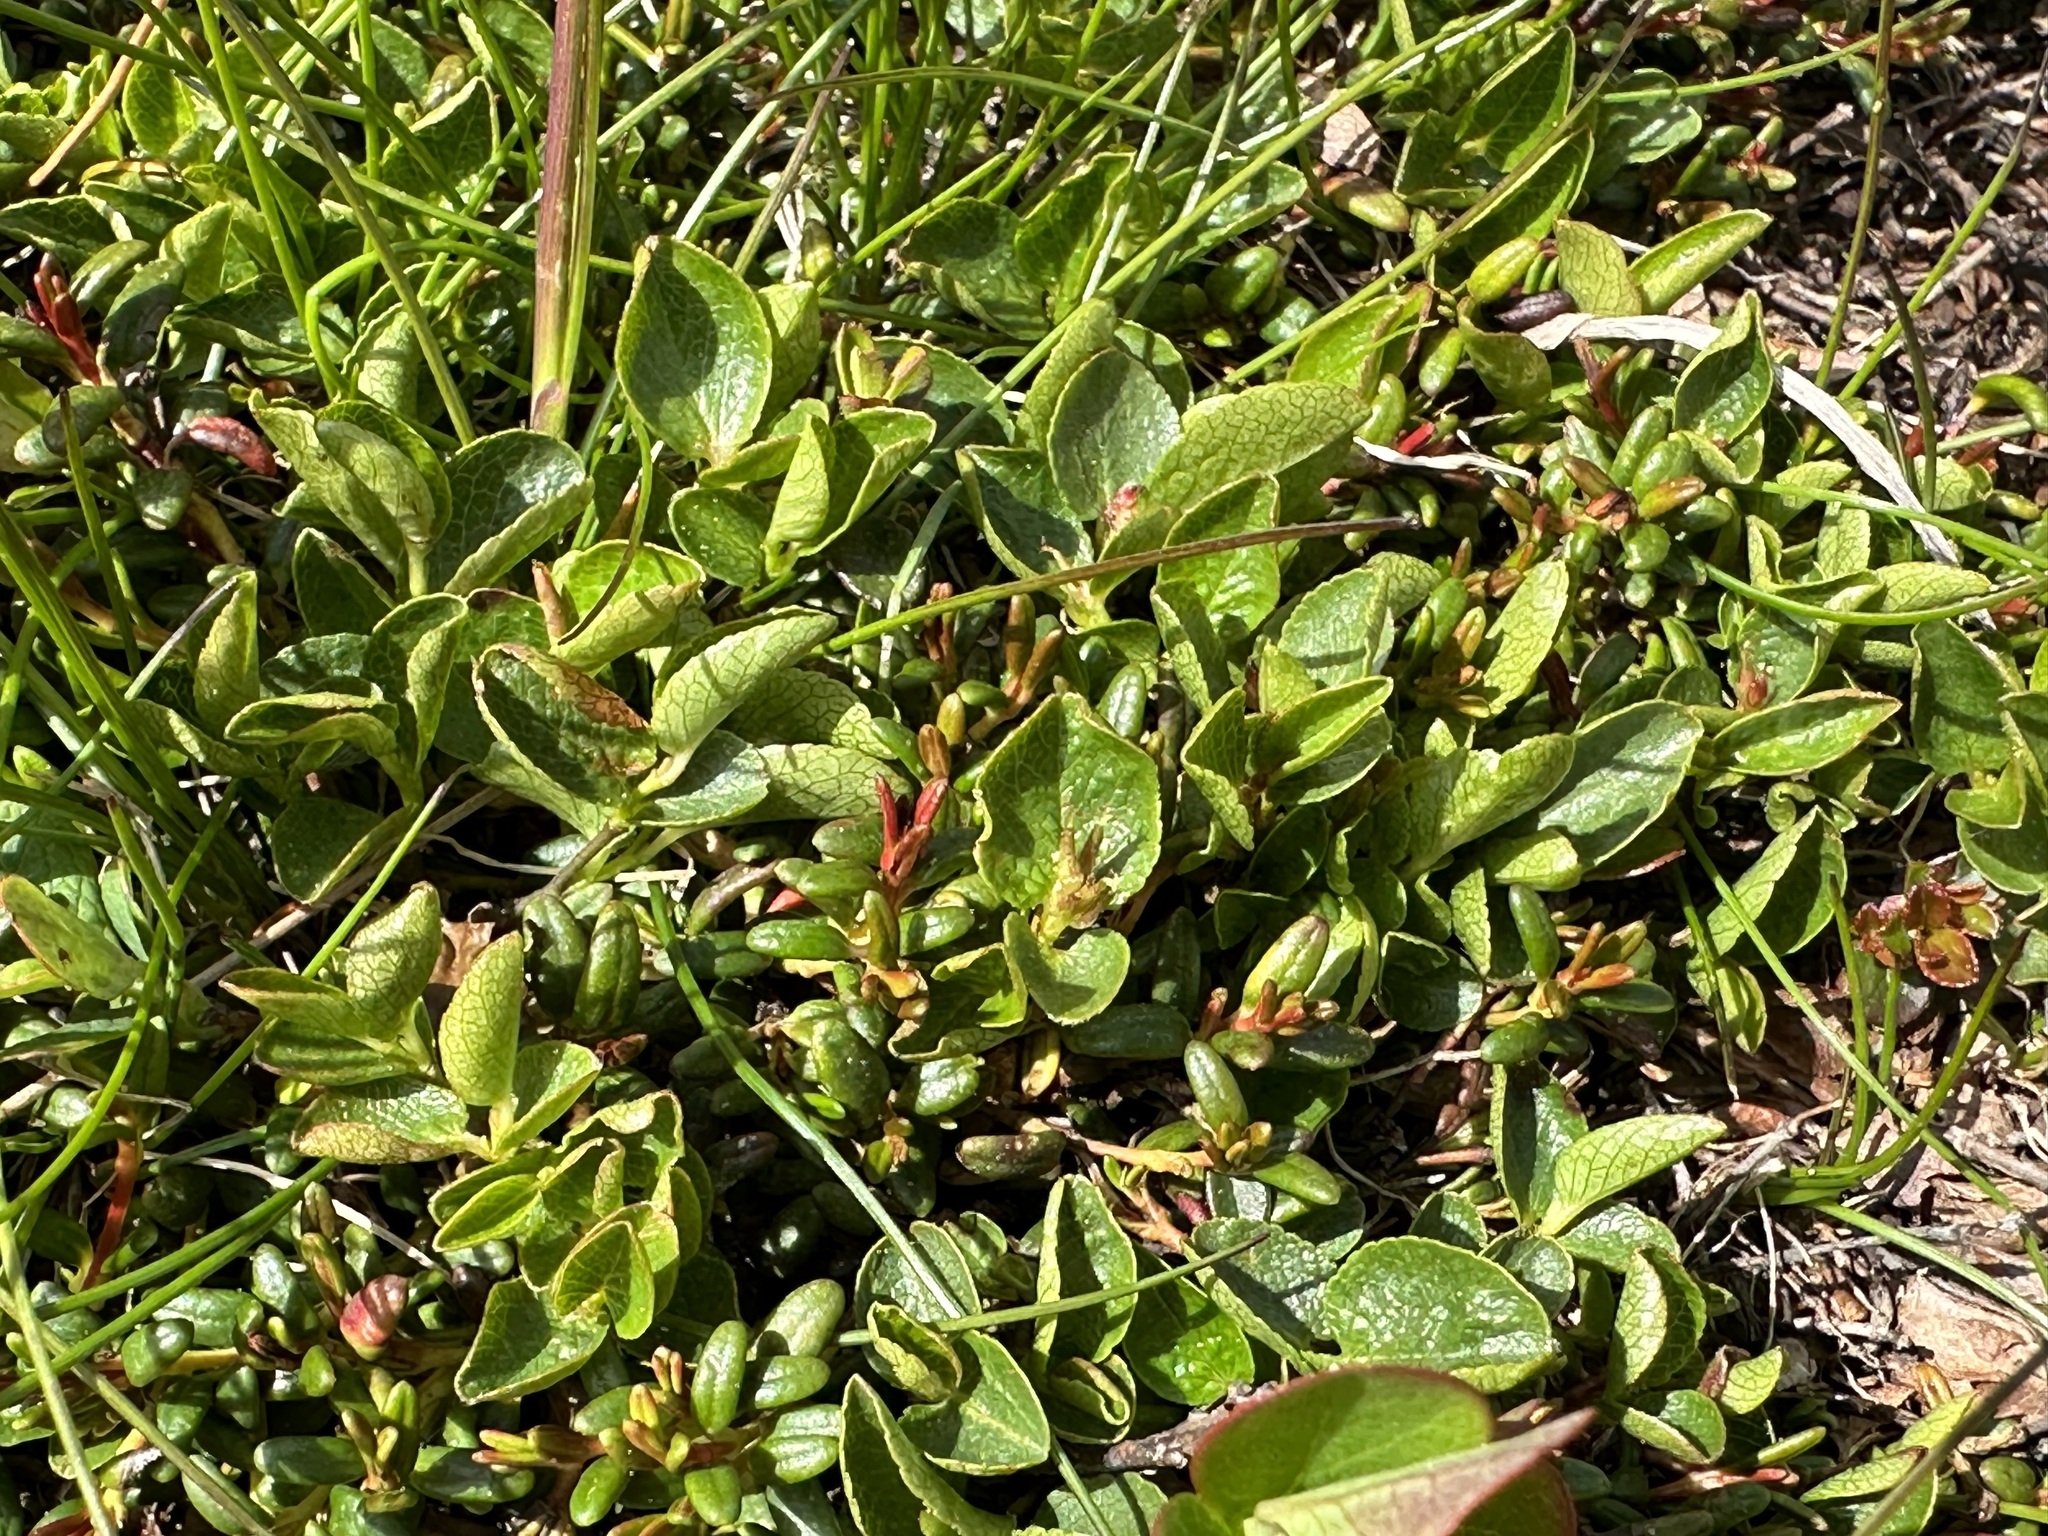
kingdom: Plantae
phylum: Tracheophyta
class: Magnoliopsida
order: Malpighiales
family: Salicaceae
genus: Salix
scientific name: Salix herbacea
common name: Dwarf willow
